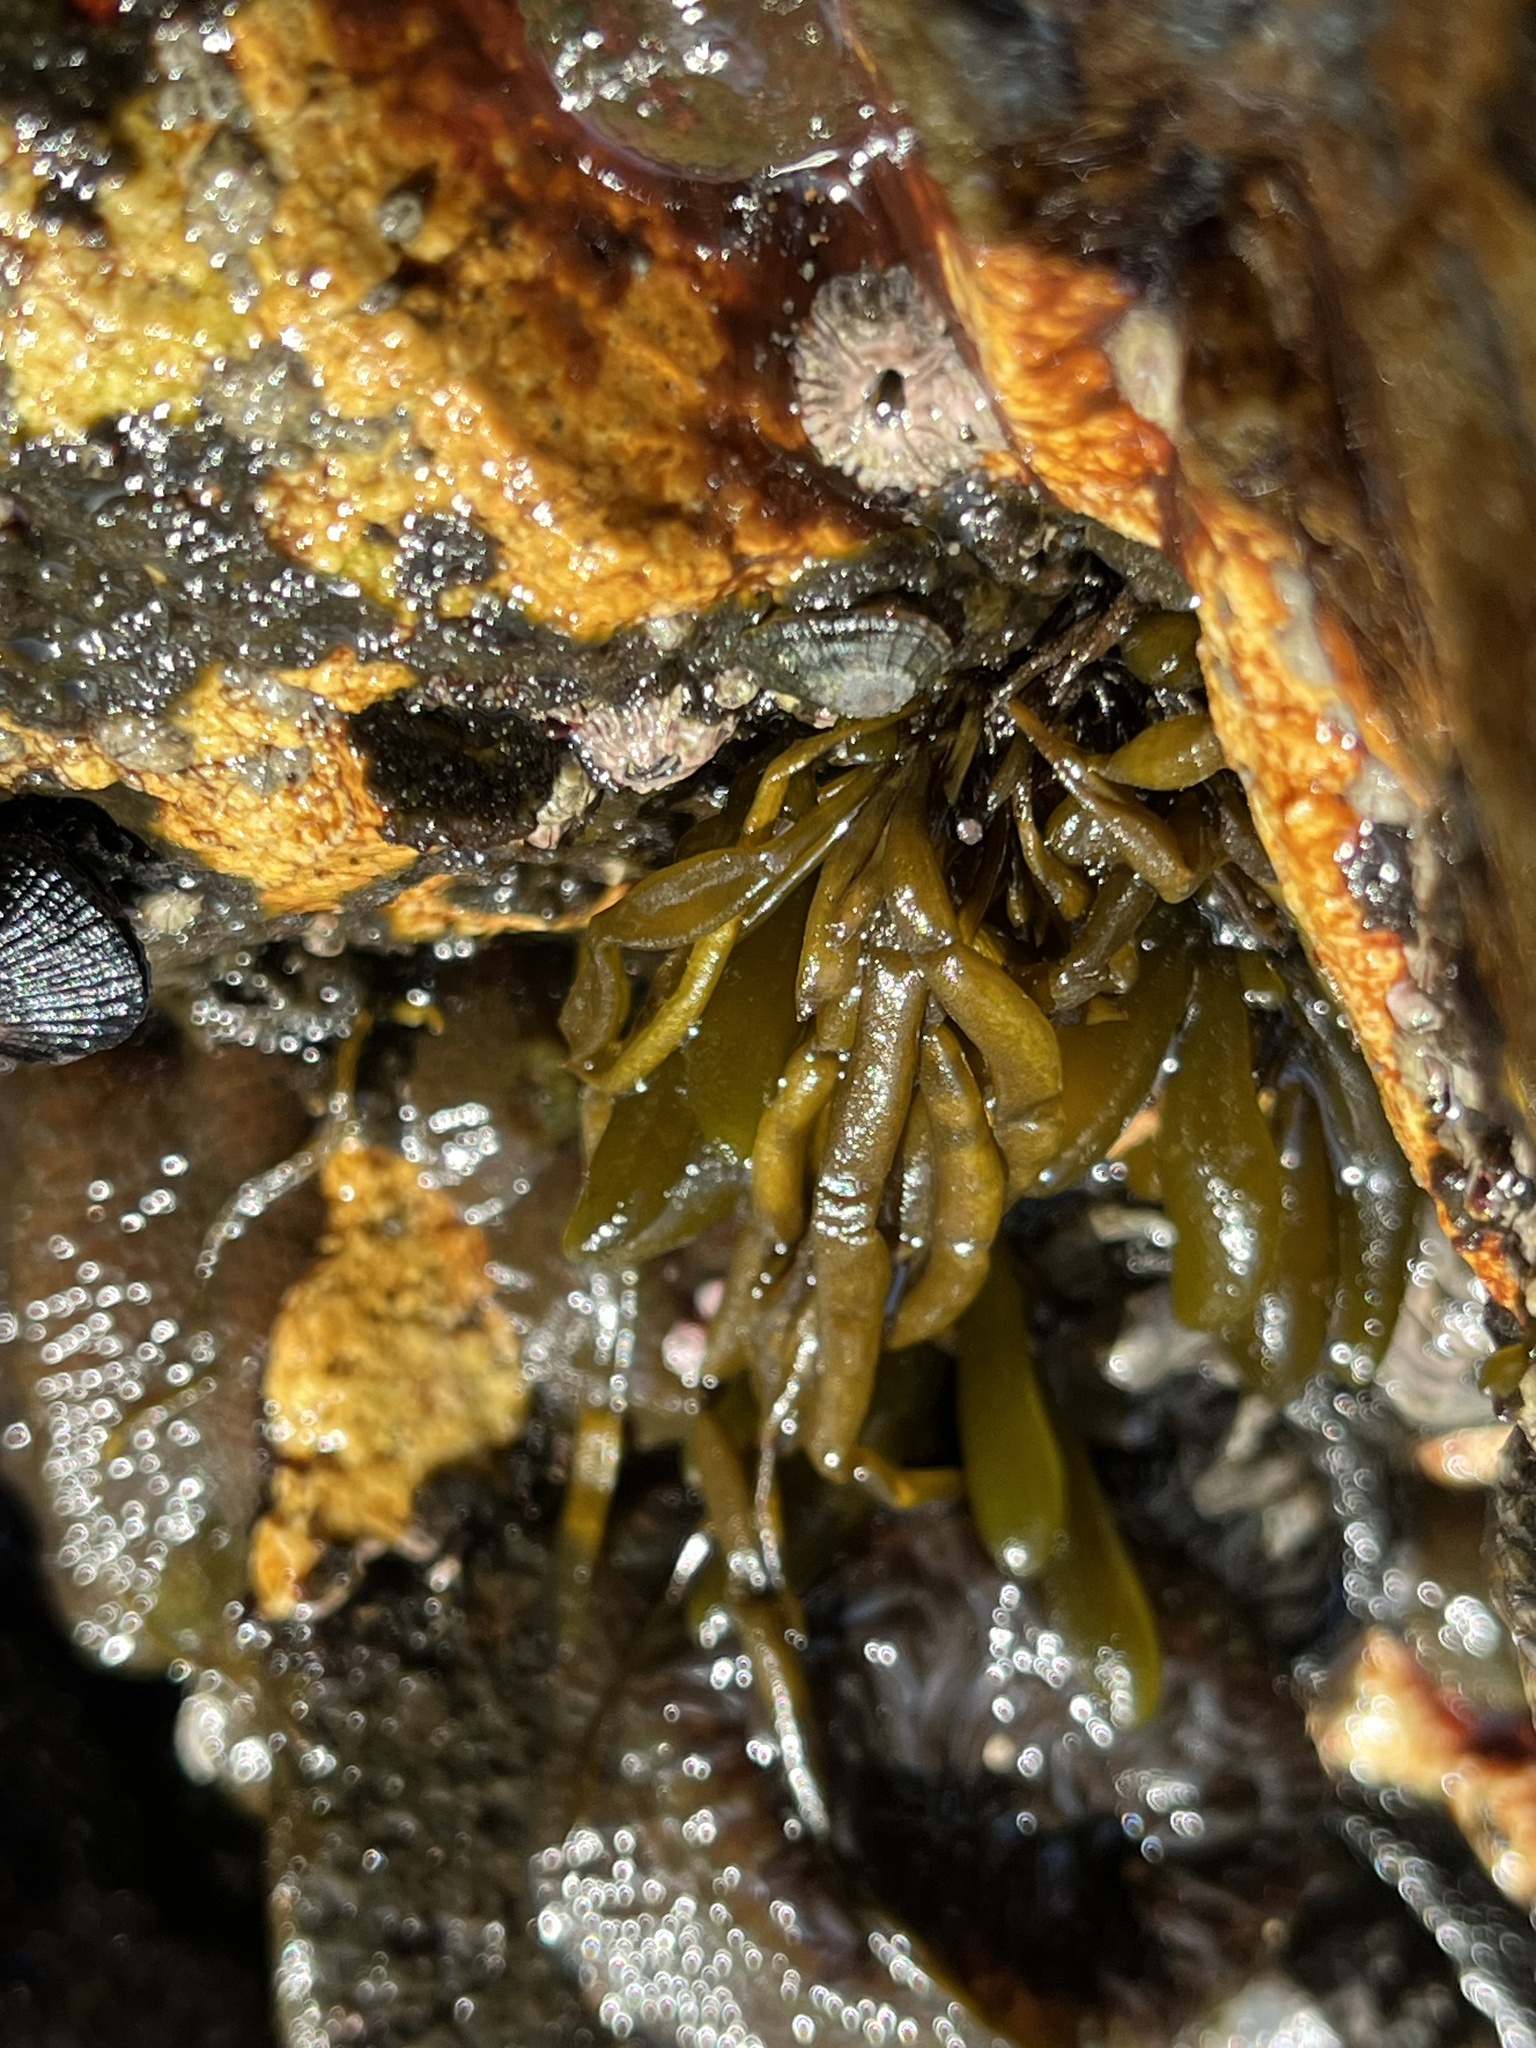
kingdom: Chromista
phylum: Ochrophyta
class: Phaeophyceae
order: Scytosiphonales
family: Scytosiphonaceae
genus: Scytosiphon
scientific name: Scytosiphon lomentaria
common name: Beanweed
